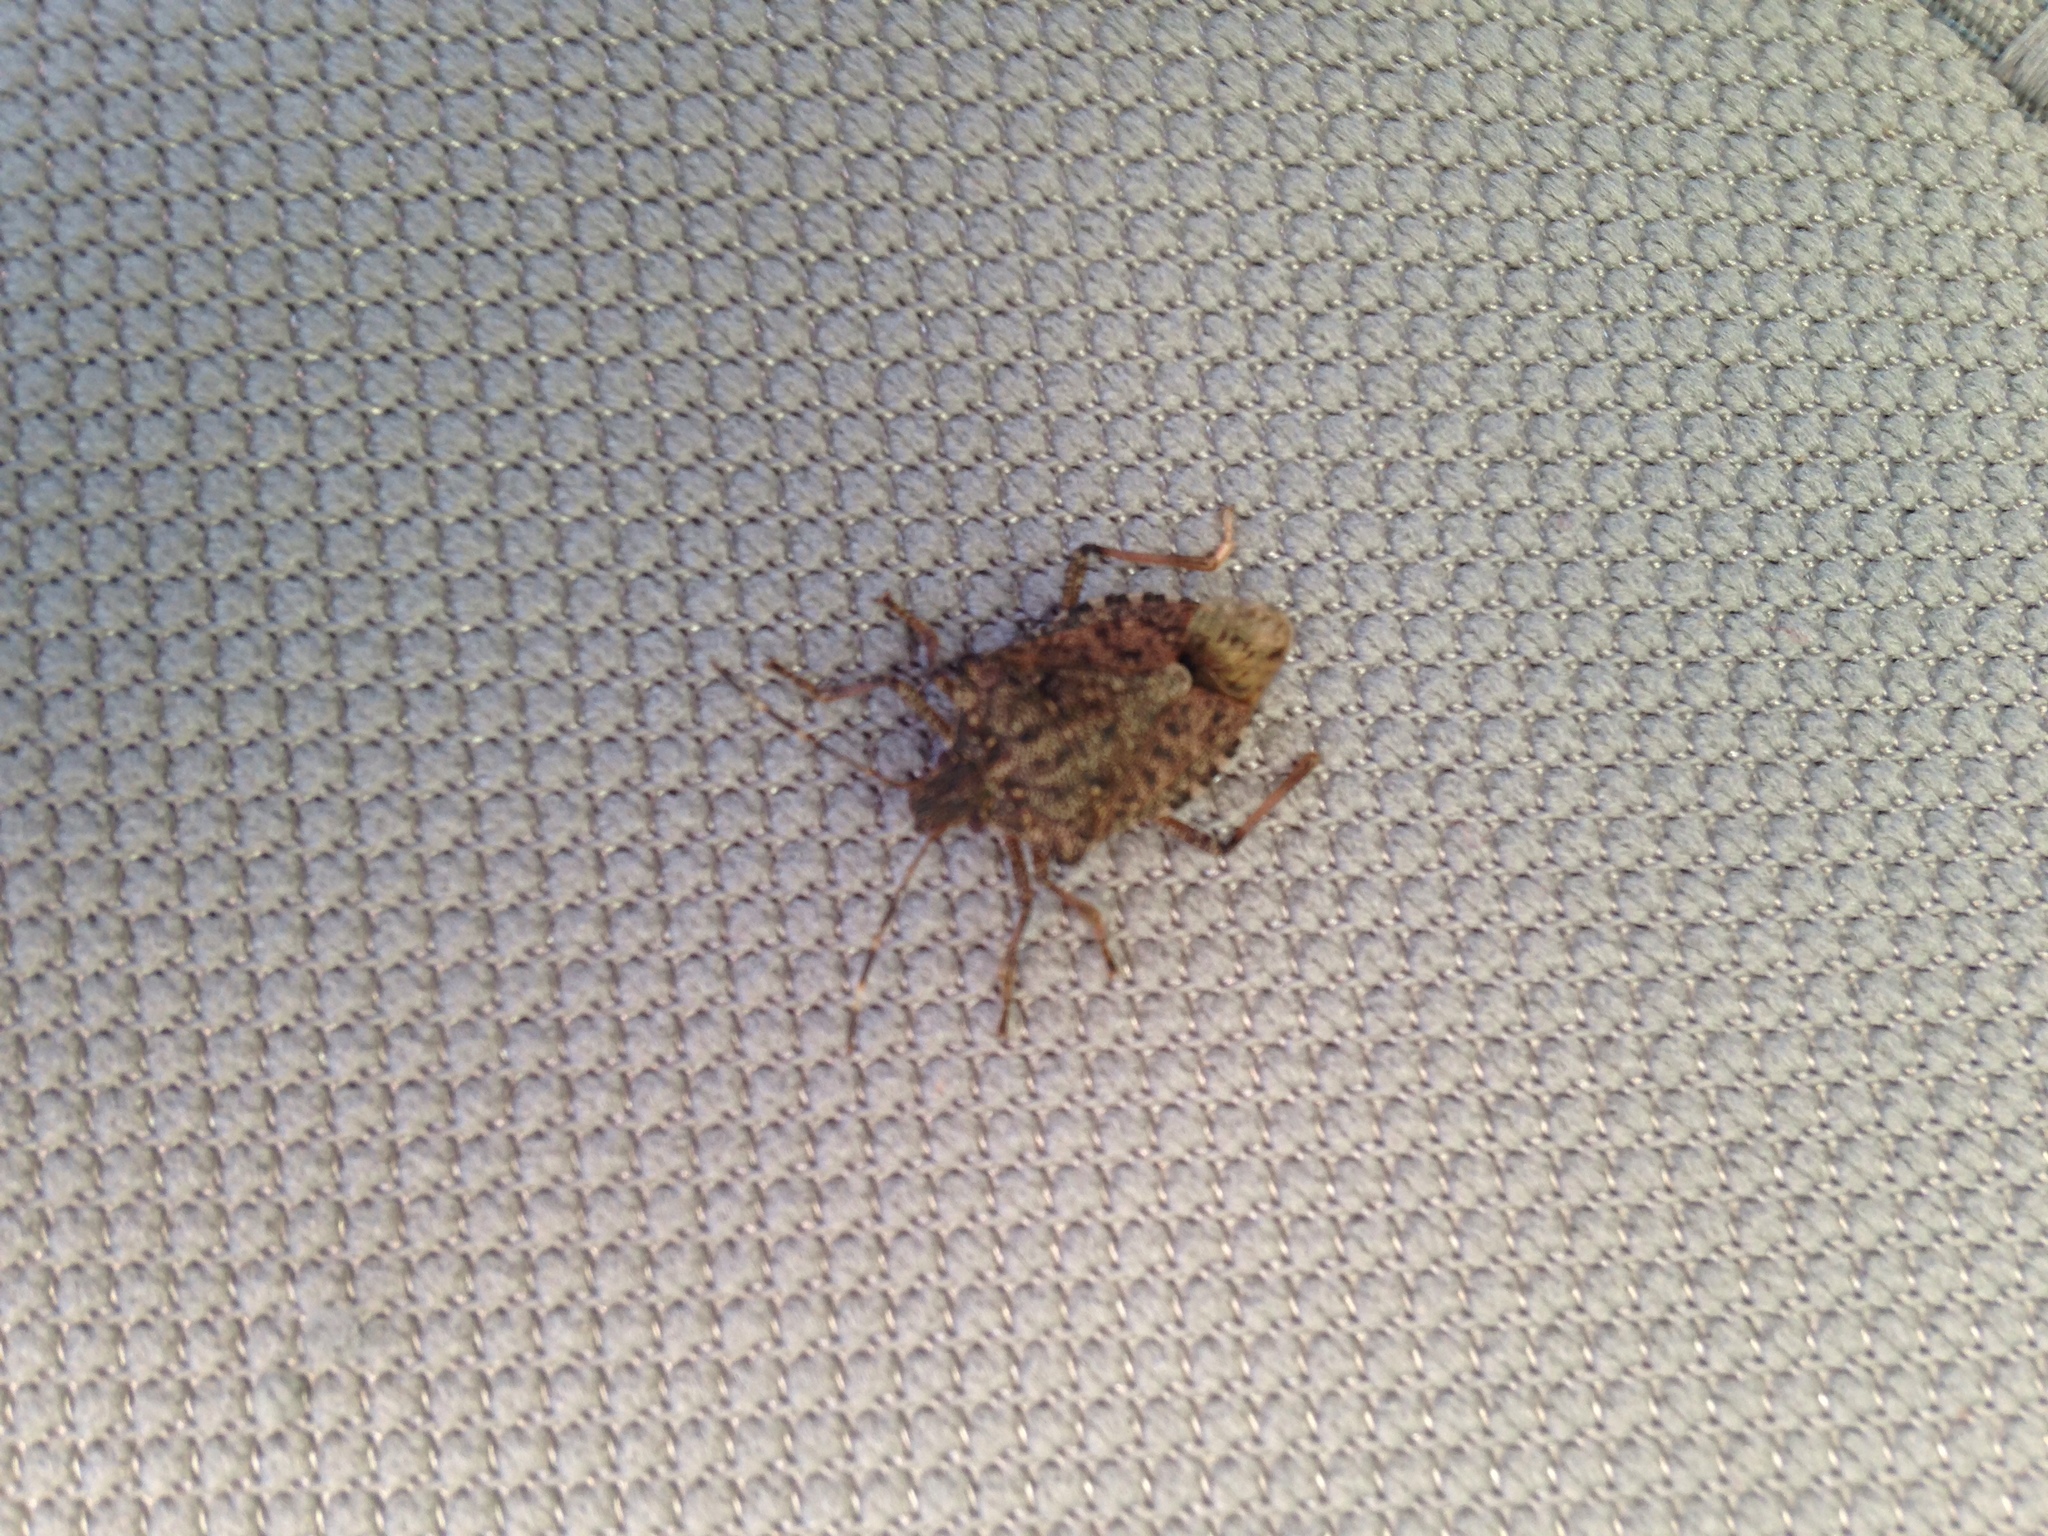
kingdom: Animalia
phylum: Arthropoda
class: Insecta
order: Hemiptera
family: Pentatomidae
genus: Halyomorpha
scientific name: Halyomorpha halys
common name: Brown marmorated stink bug
